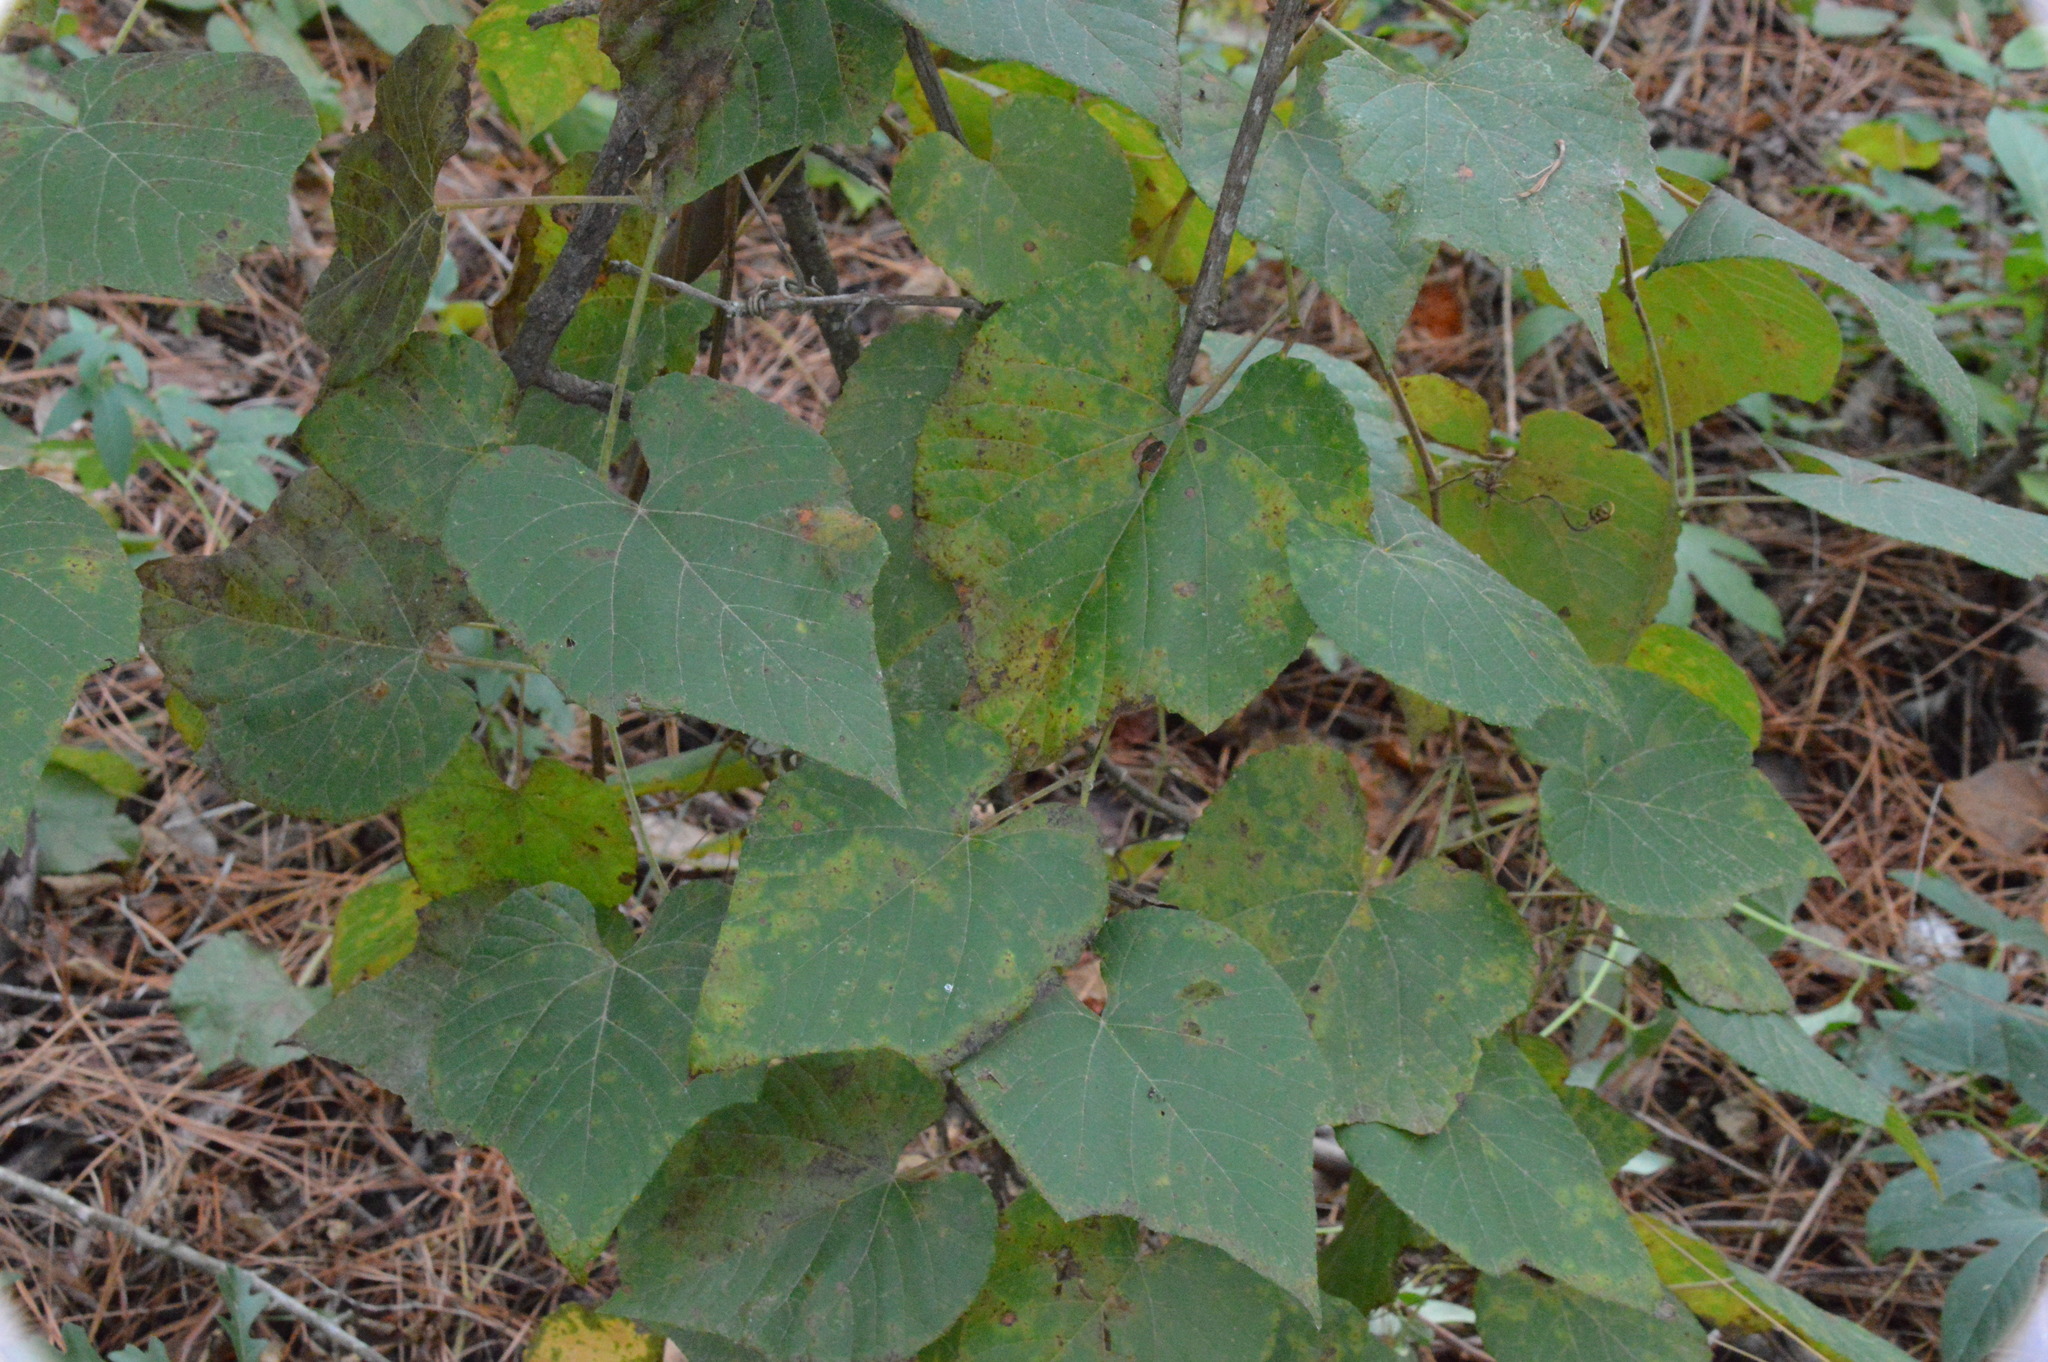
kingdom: Plantae
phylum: Tracheophyta
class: Magnoliopsida
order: Vitales
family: Vitaceae
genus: Vitis
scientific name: Vitis cinerea
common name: Ashy grape
